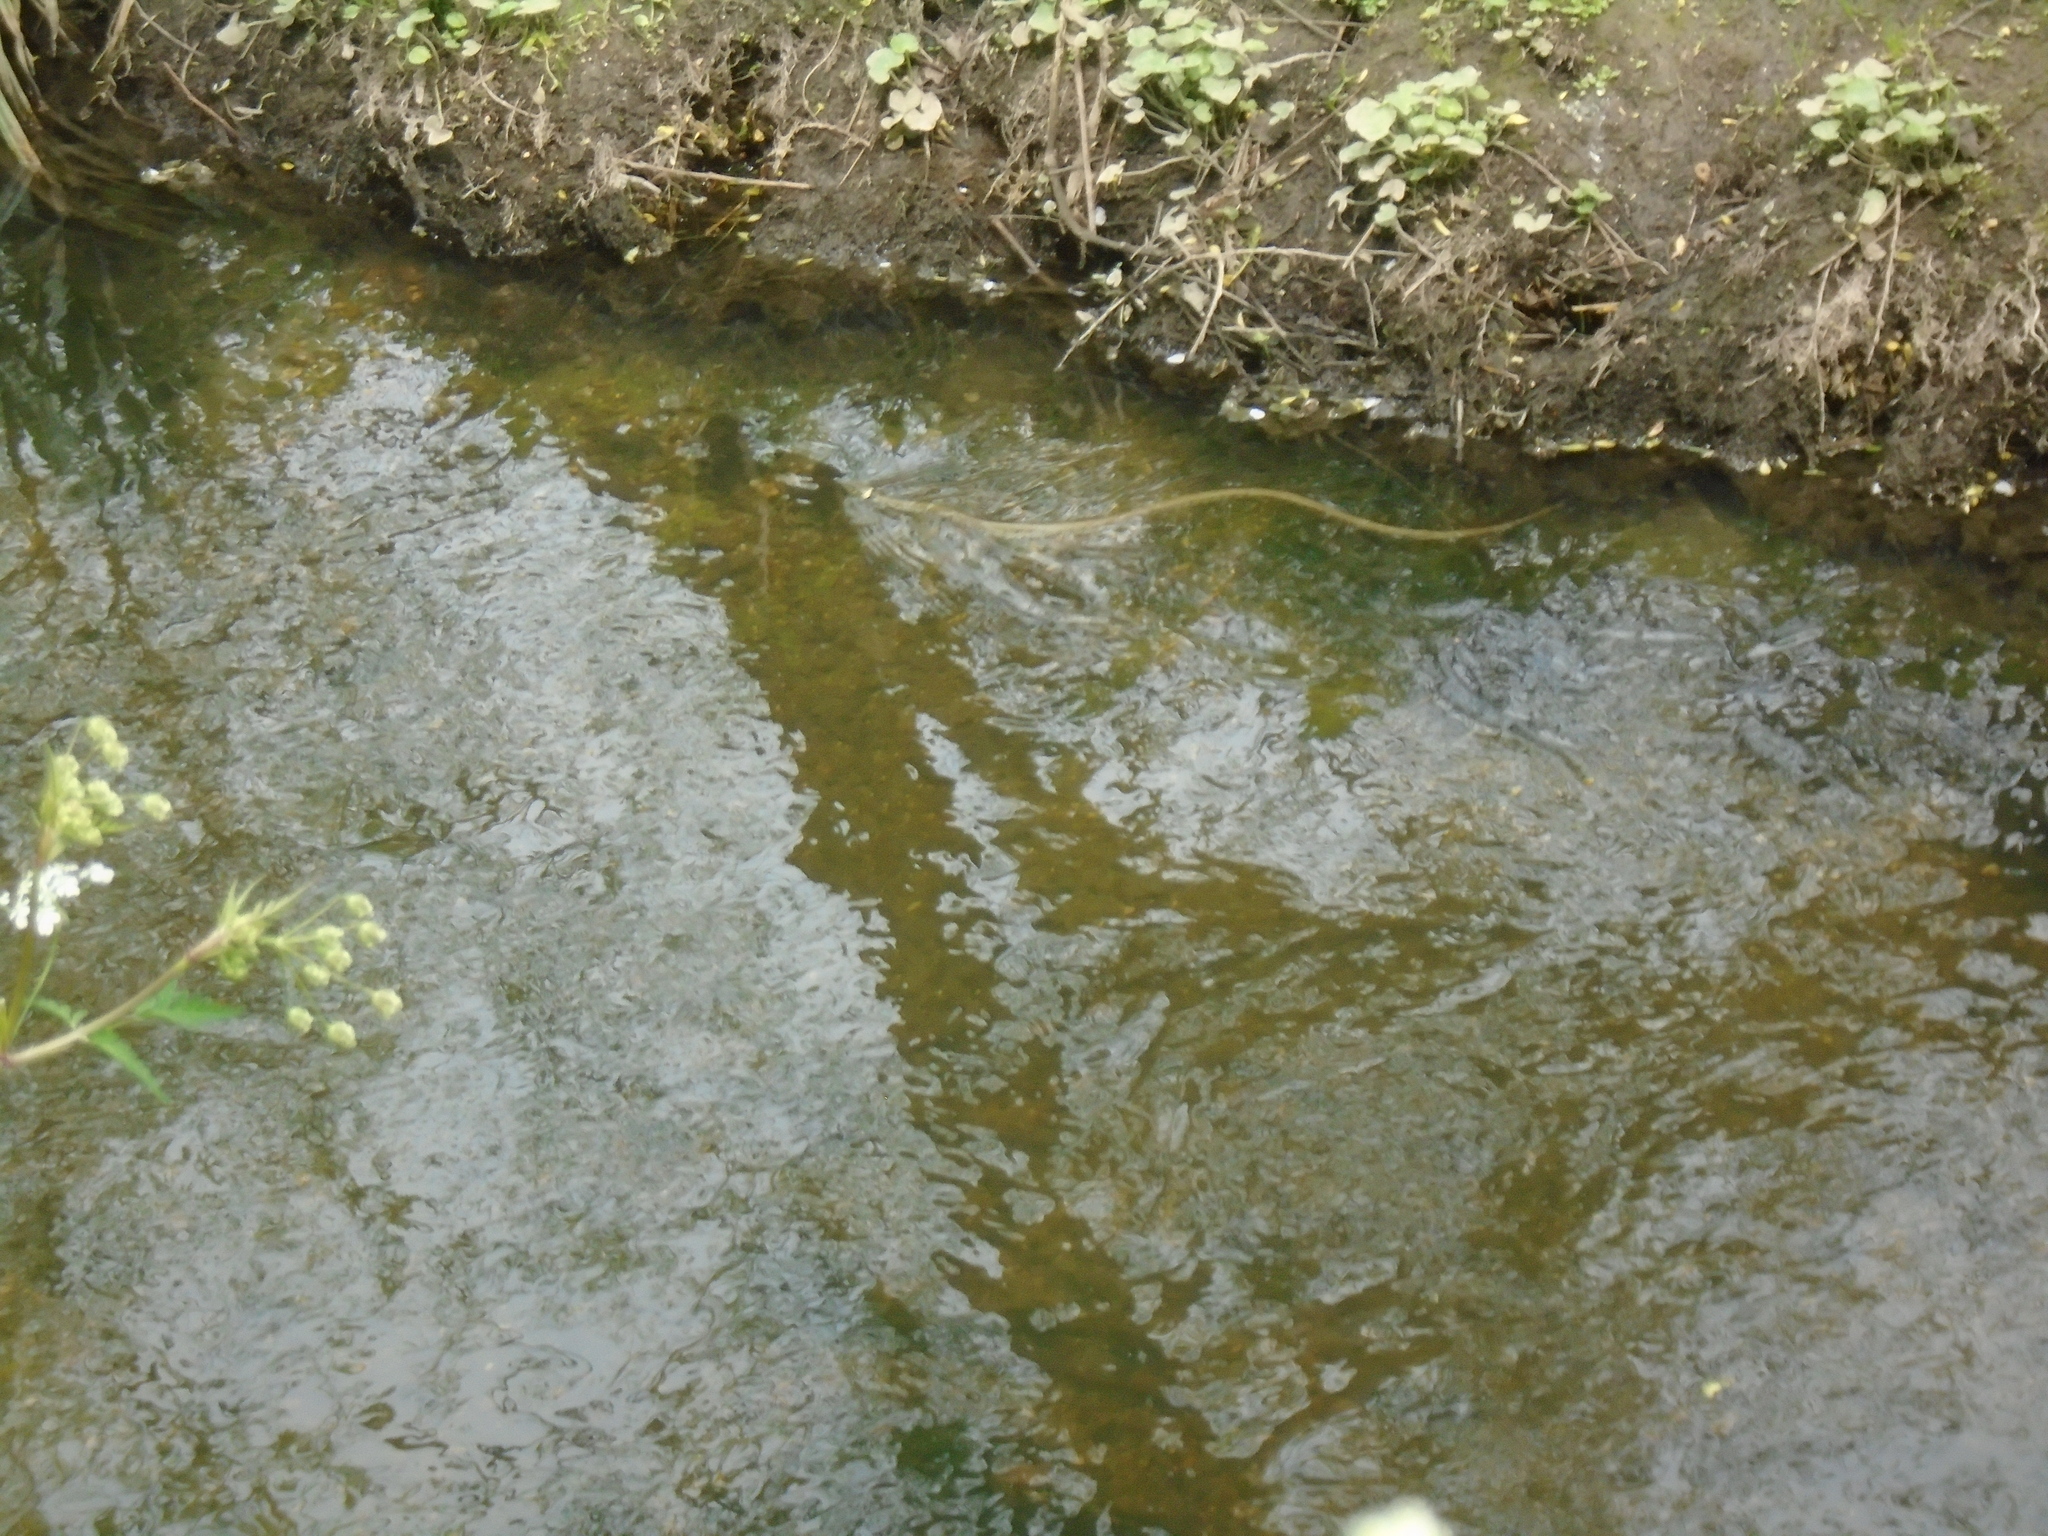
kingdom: Animalia
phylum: Chordata
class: Squamata
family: Colubridae
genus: Natrix
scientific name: Natrix helvetica
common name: Banded grass snake
